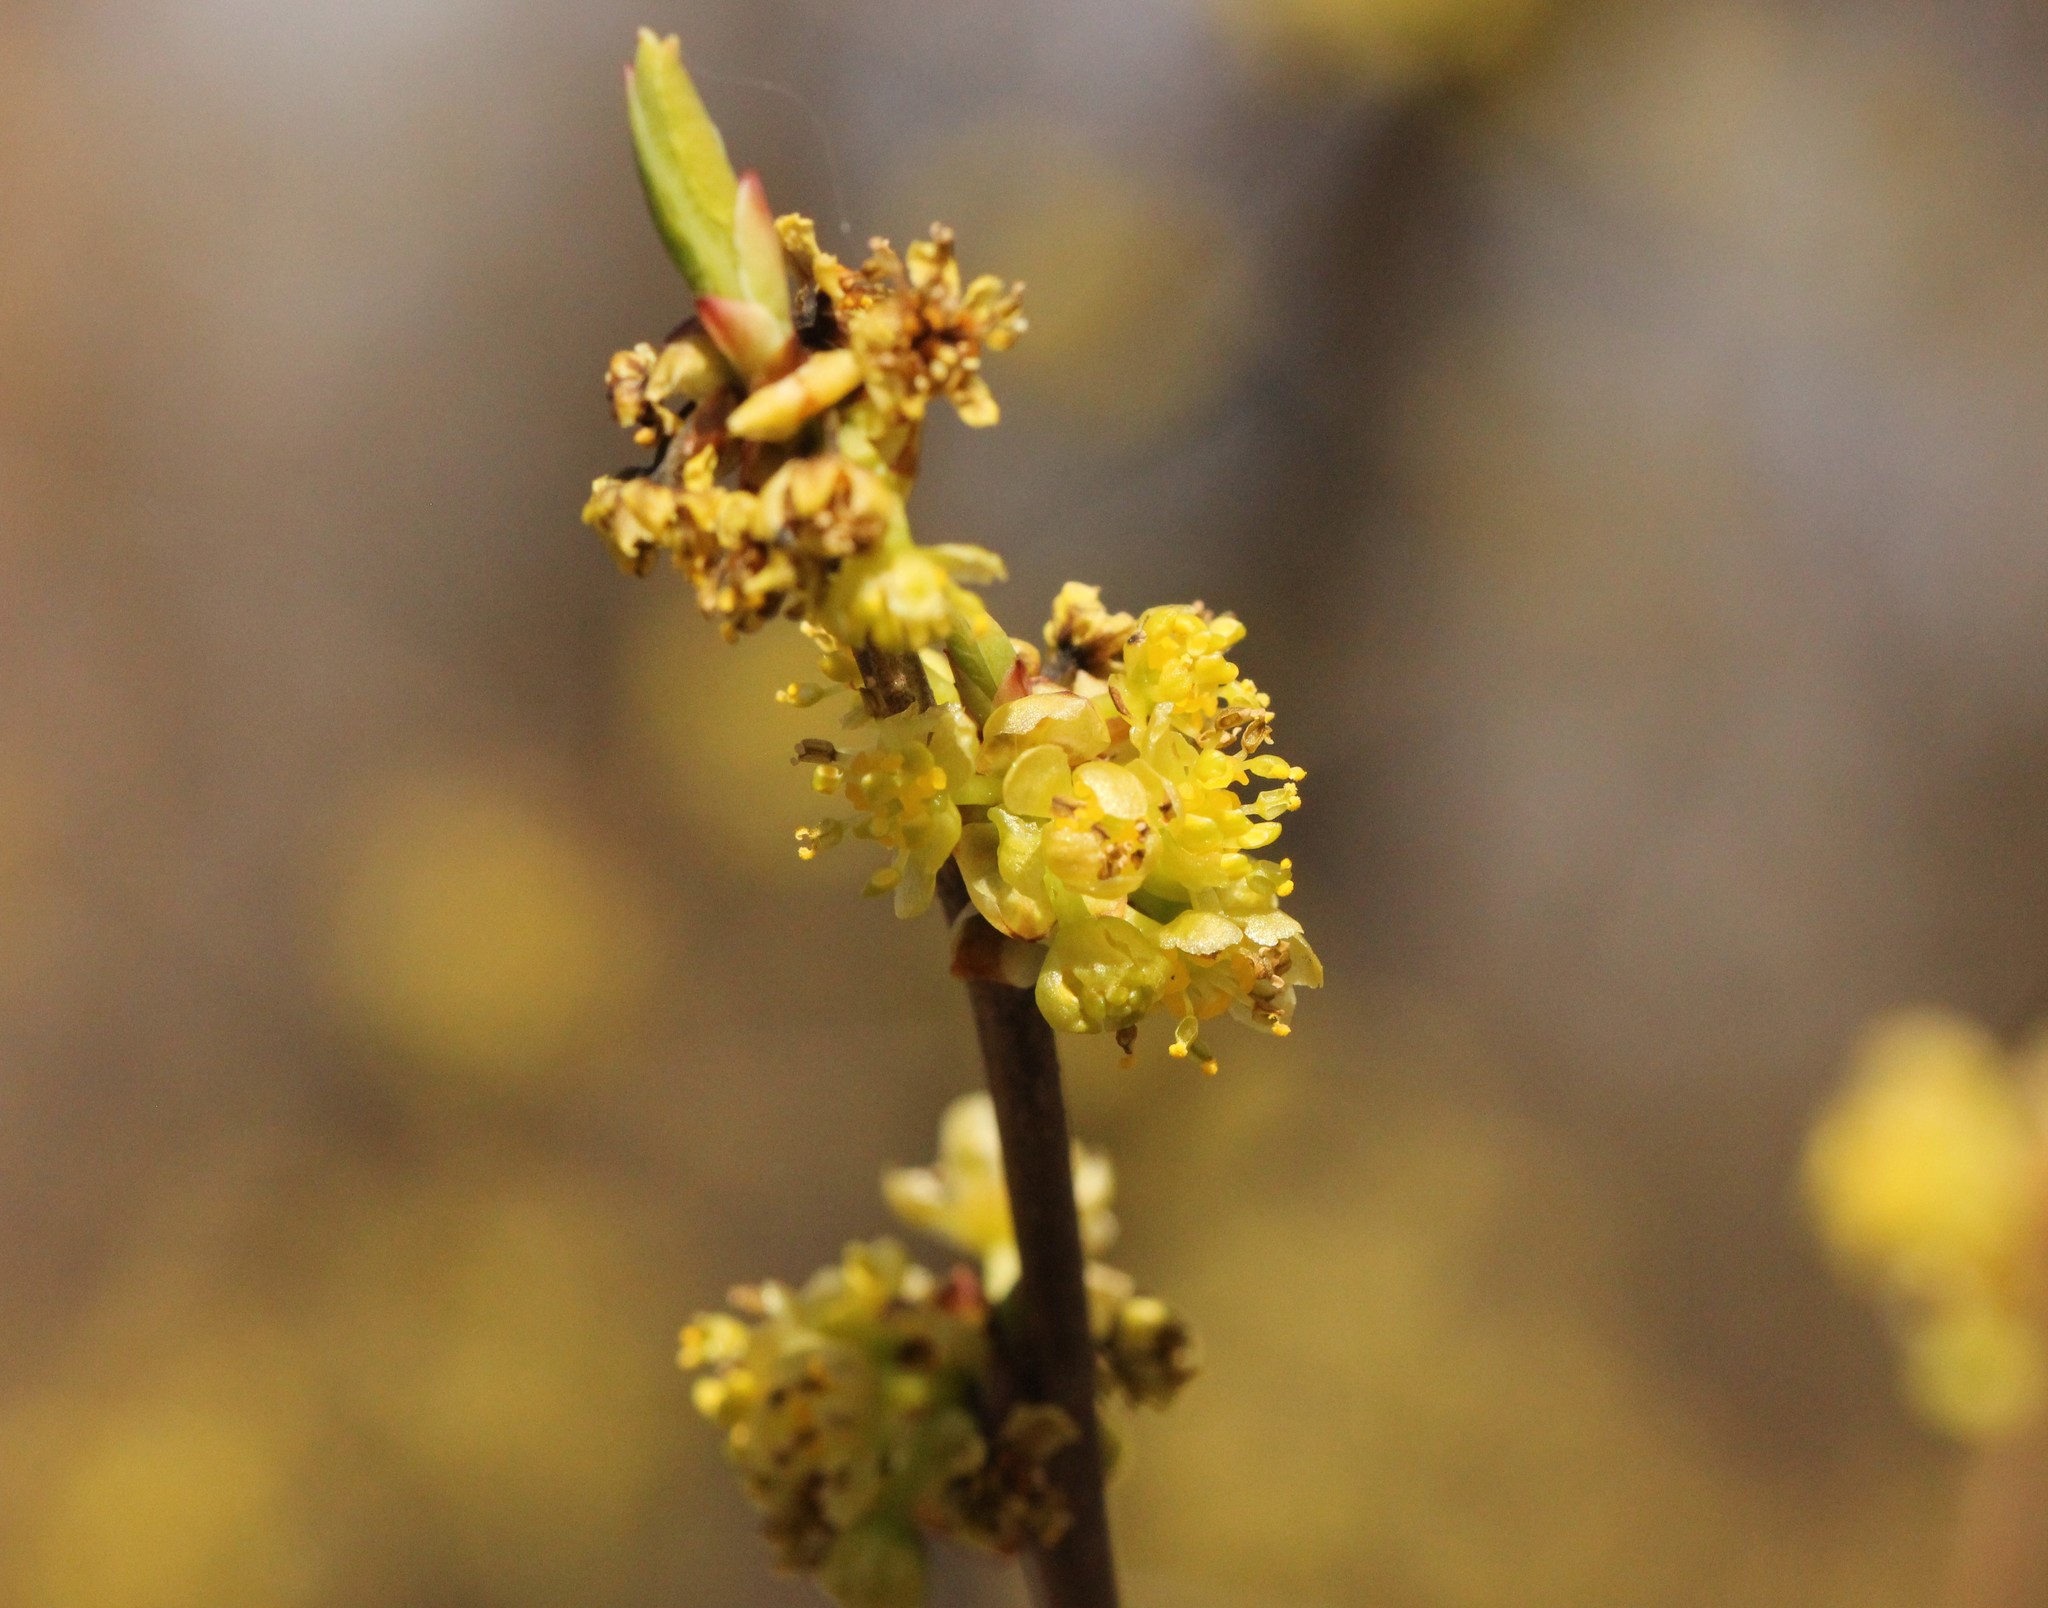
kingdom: Plantae
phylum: Tracheophyta
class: Magnoliopsida
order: Laurales
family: Lauraceae
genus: Lindera
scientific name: Lindera benzoin
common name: Spicebush
